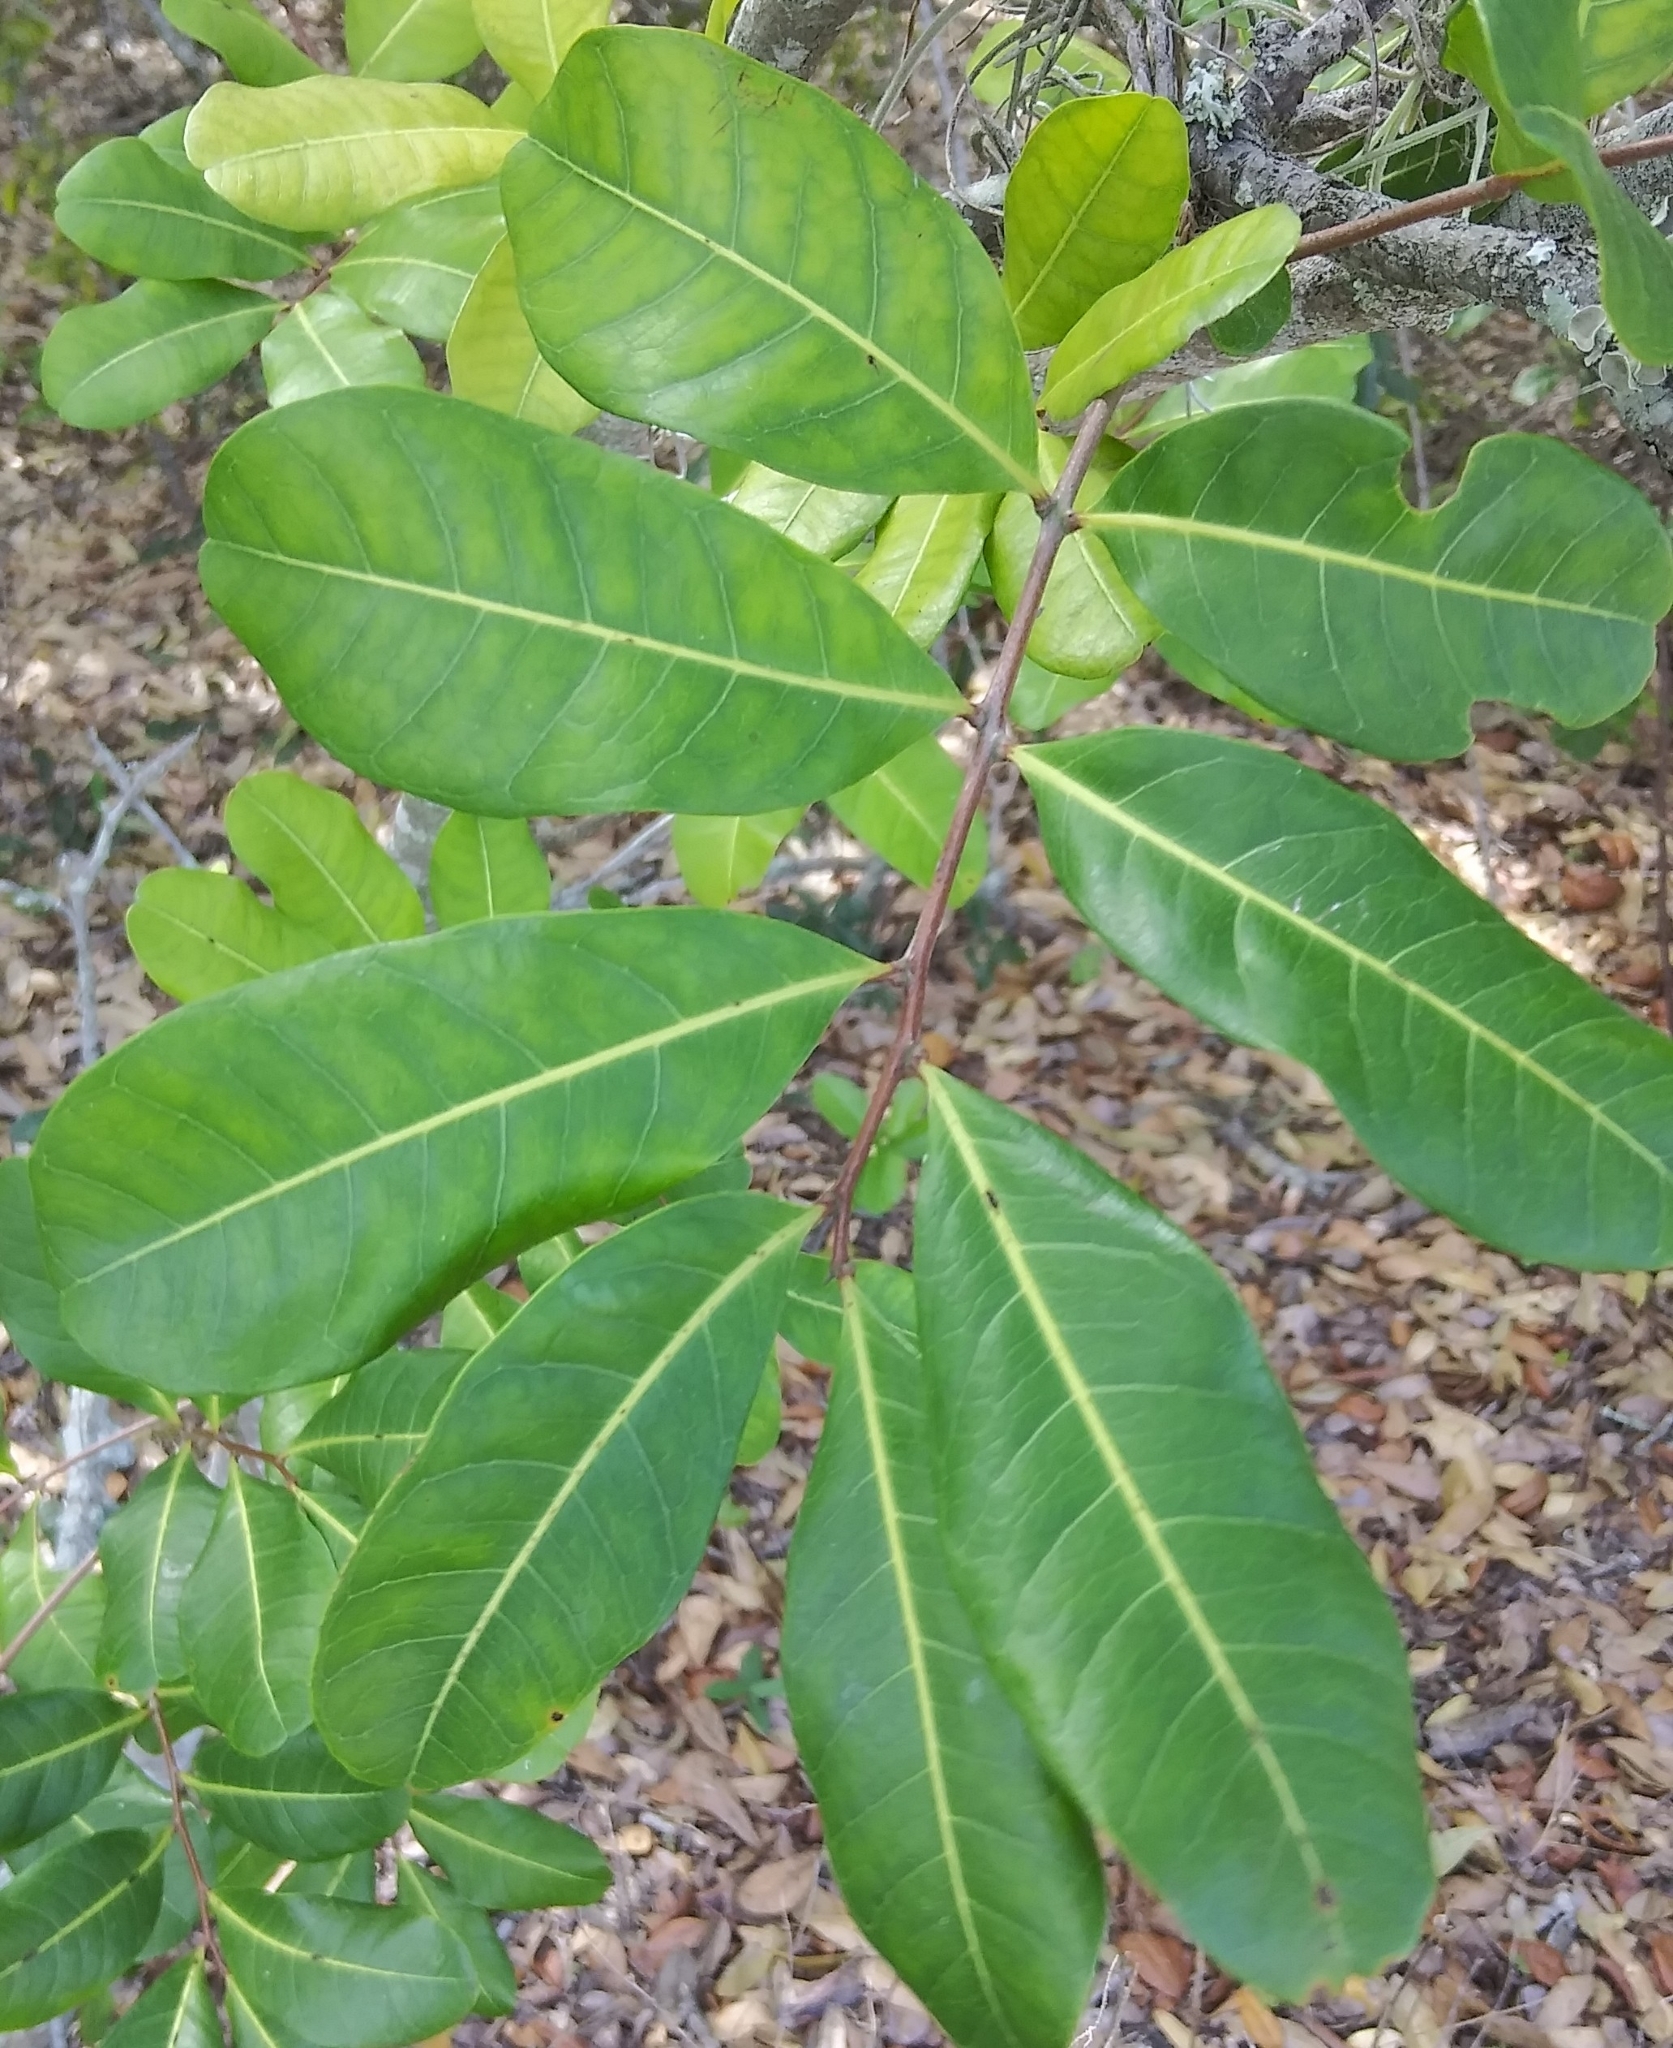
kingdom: Plantae
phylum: Tracheophyta
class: Magnoliopsida
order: Sapindales
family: Sapindaceae
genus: Cupaniopsis
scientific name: Cupaniopsis anacardioides
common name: Carrotwood
